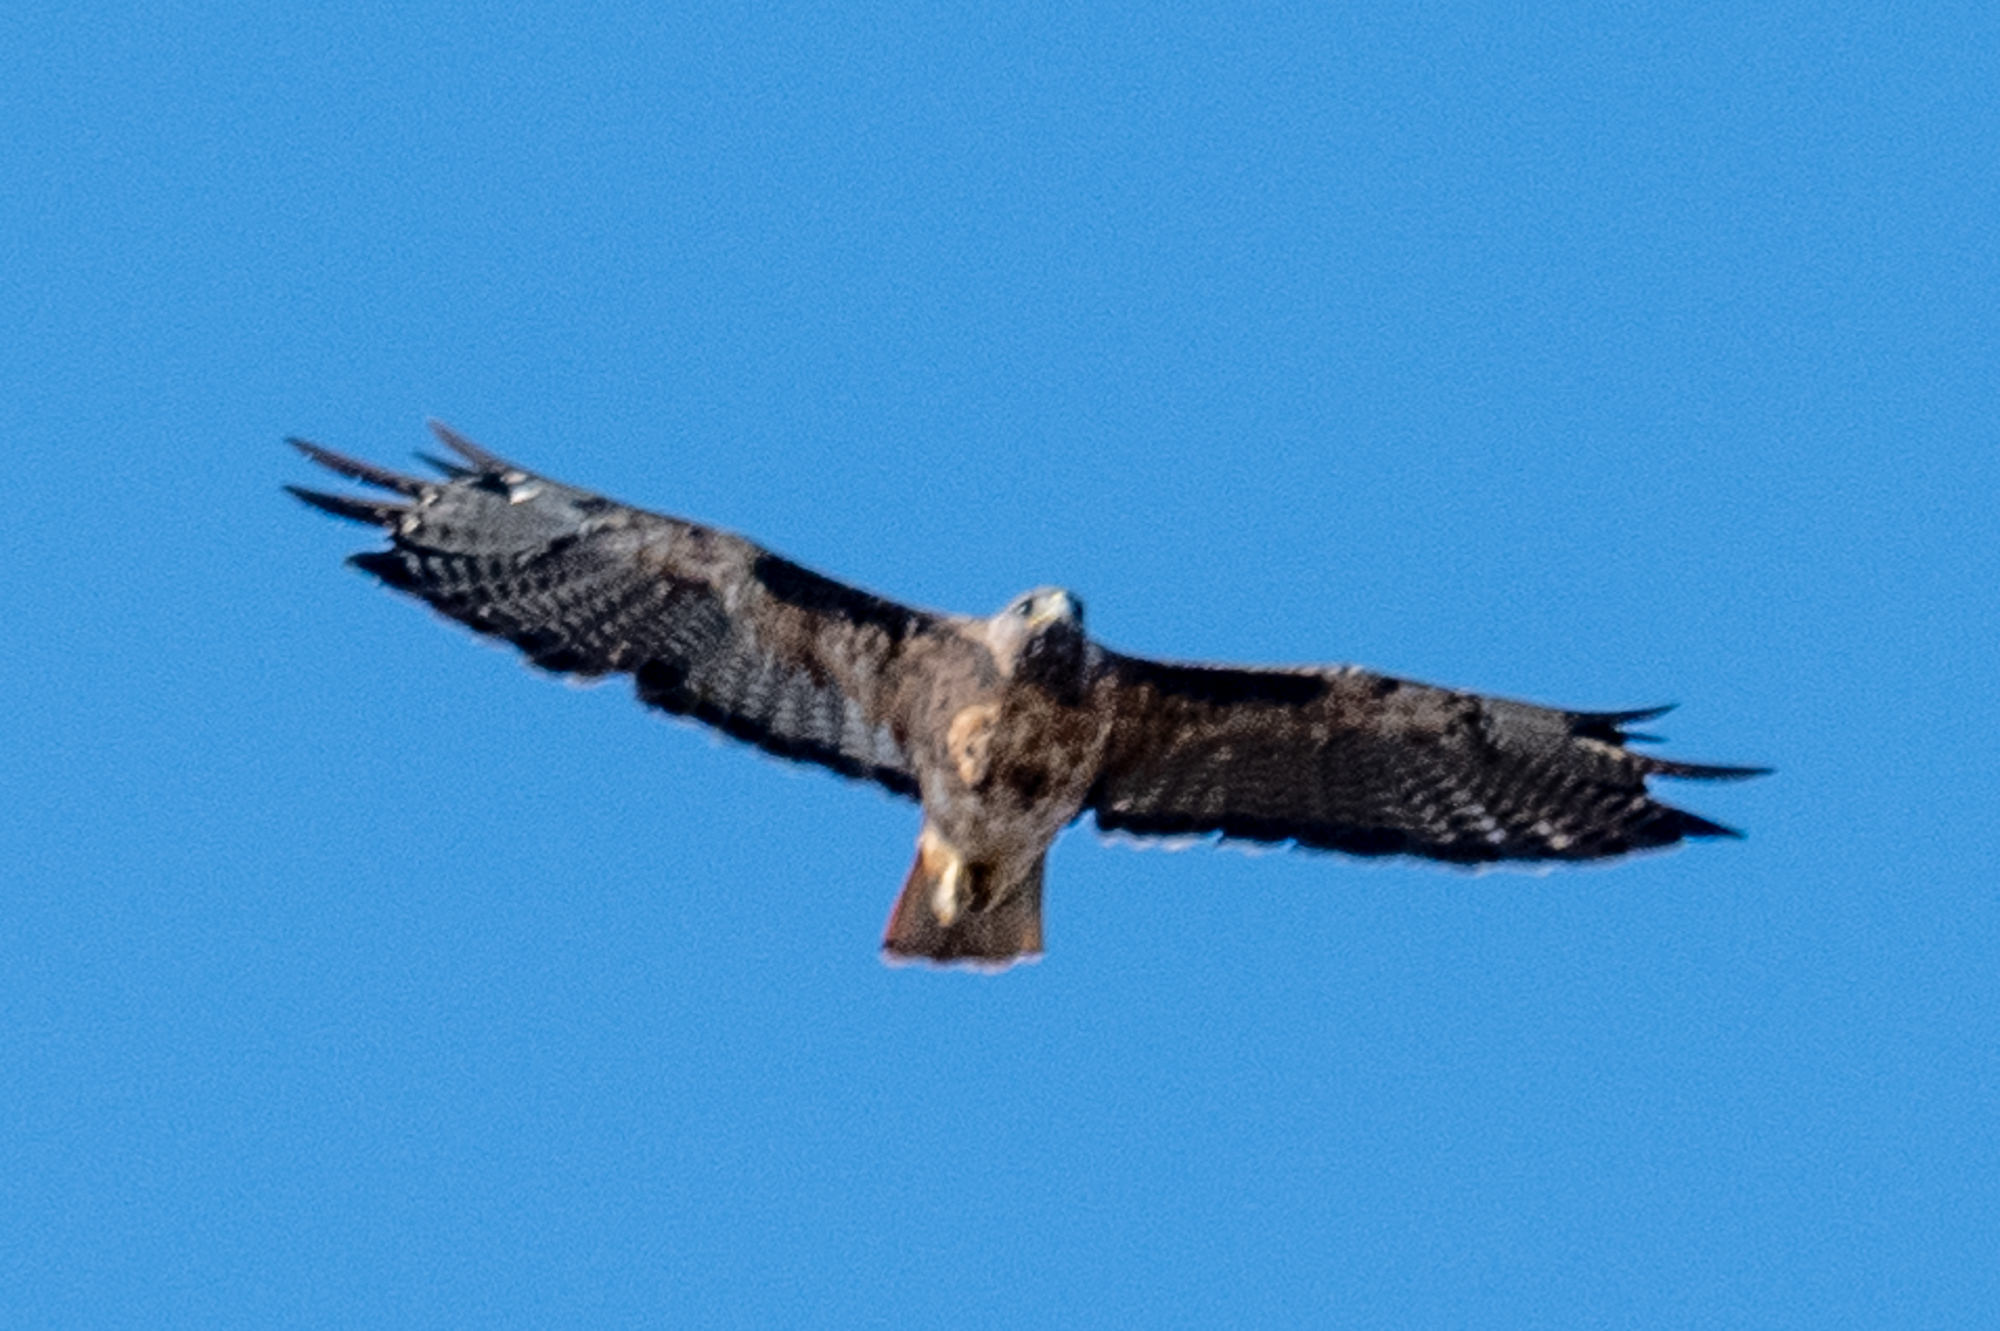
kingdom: Animalia
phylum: Chordata
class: Aves
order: Accipitriformes
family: Accipitridae
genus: Buteo
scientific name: Buteo jamaicensis
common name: Red-tailed hawk
